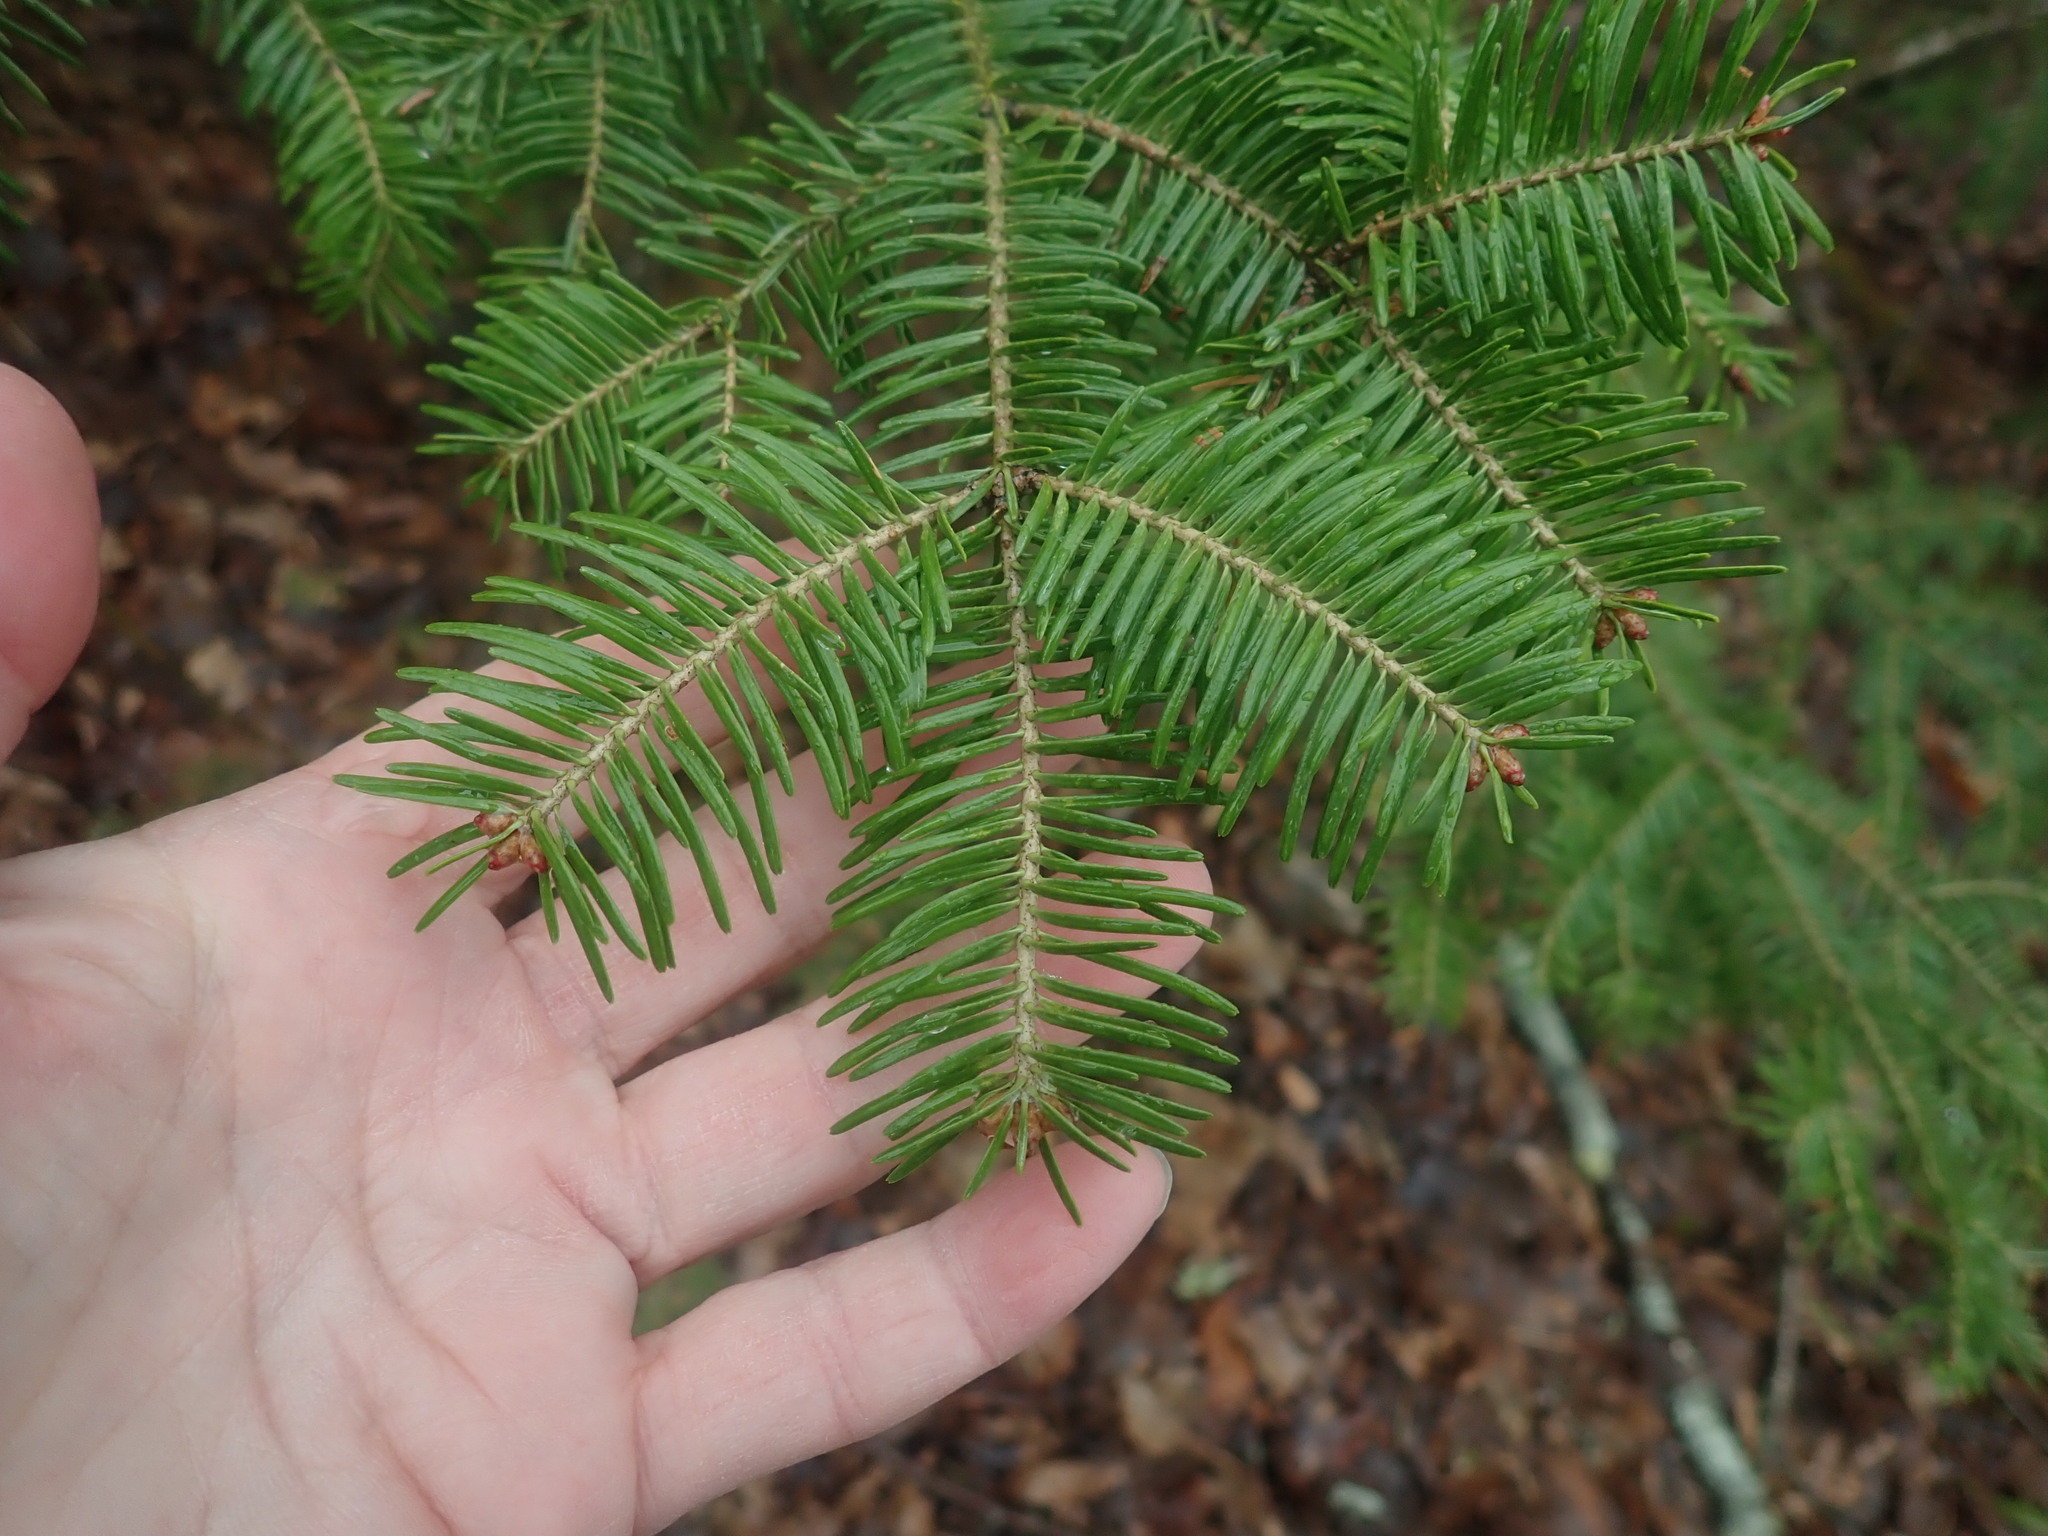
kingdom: Plantae
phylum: Tracheophyta
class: Pinopsida
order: Pinales
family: Pinaceae
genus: Abies
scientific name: Abies balsamea
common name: Balsam fir
